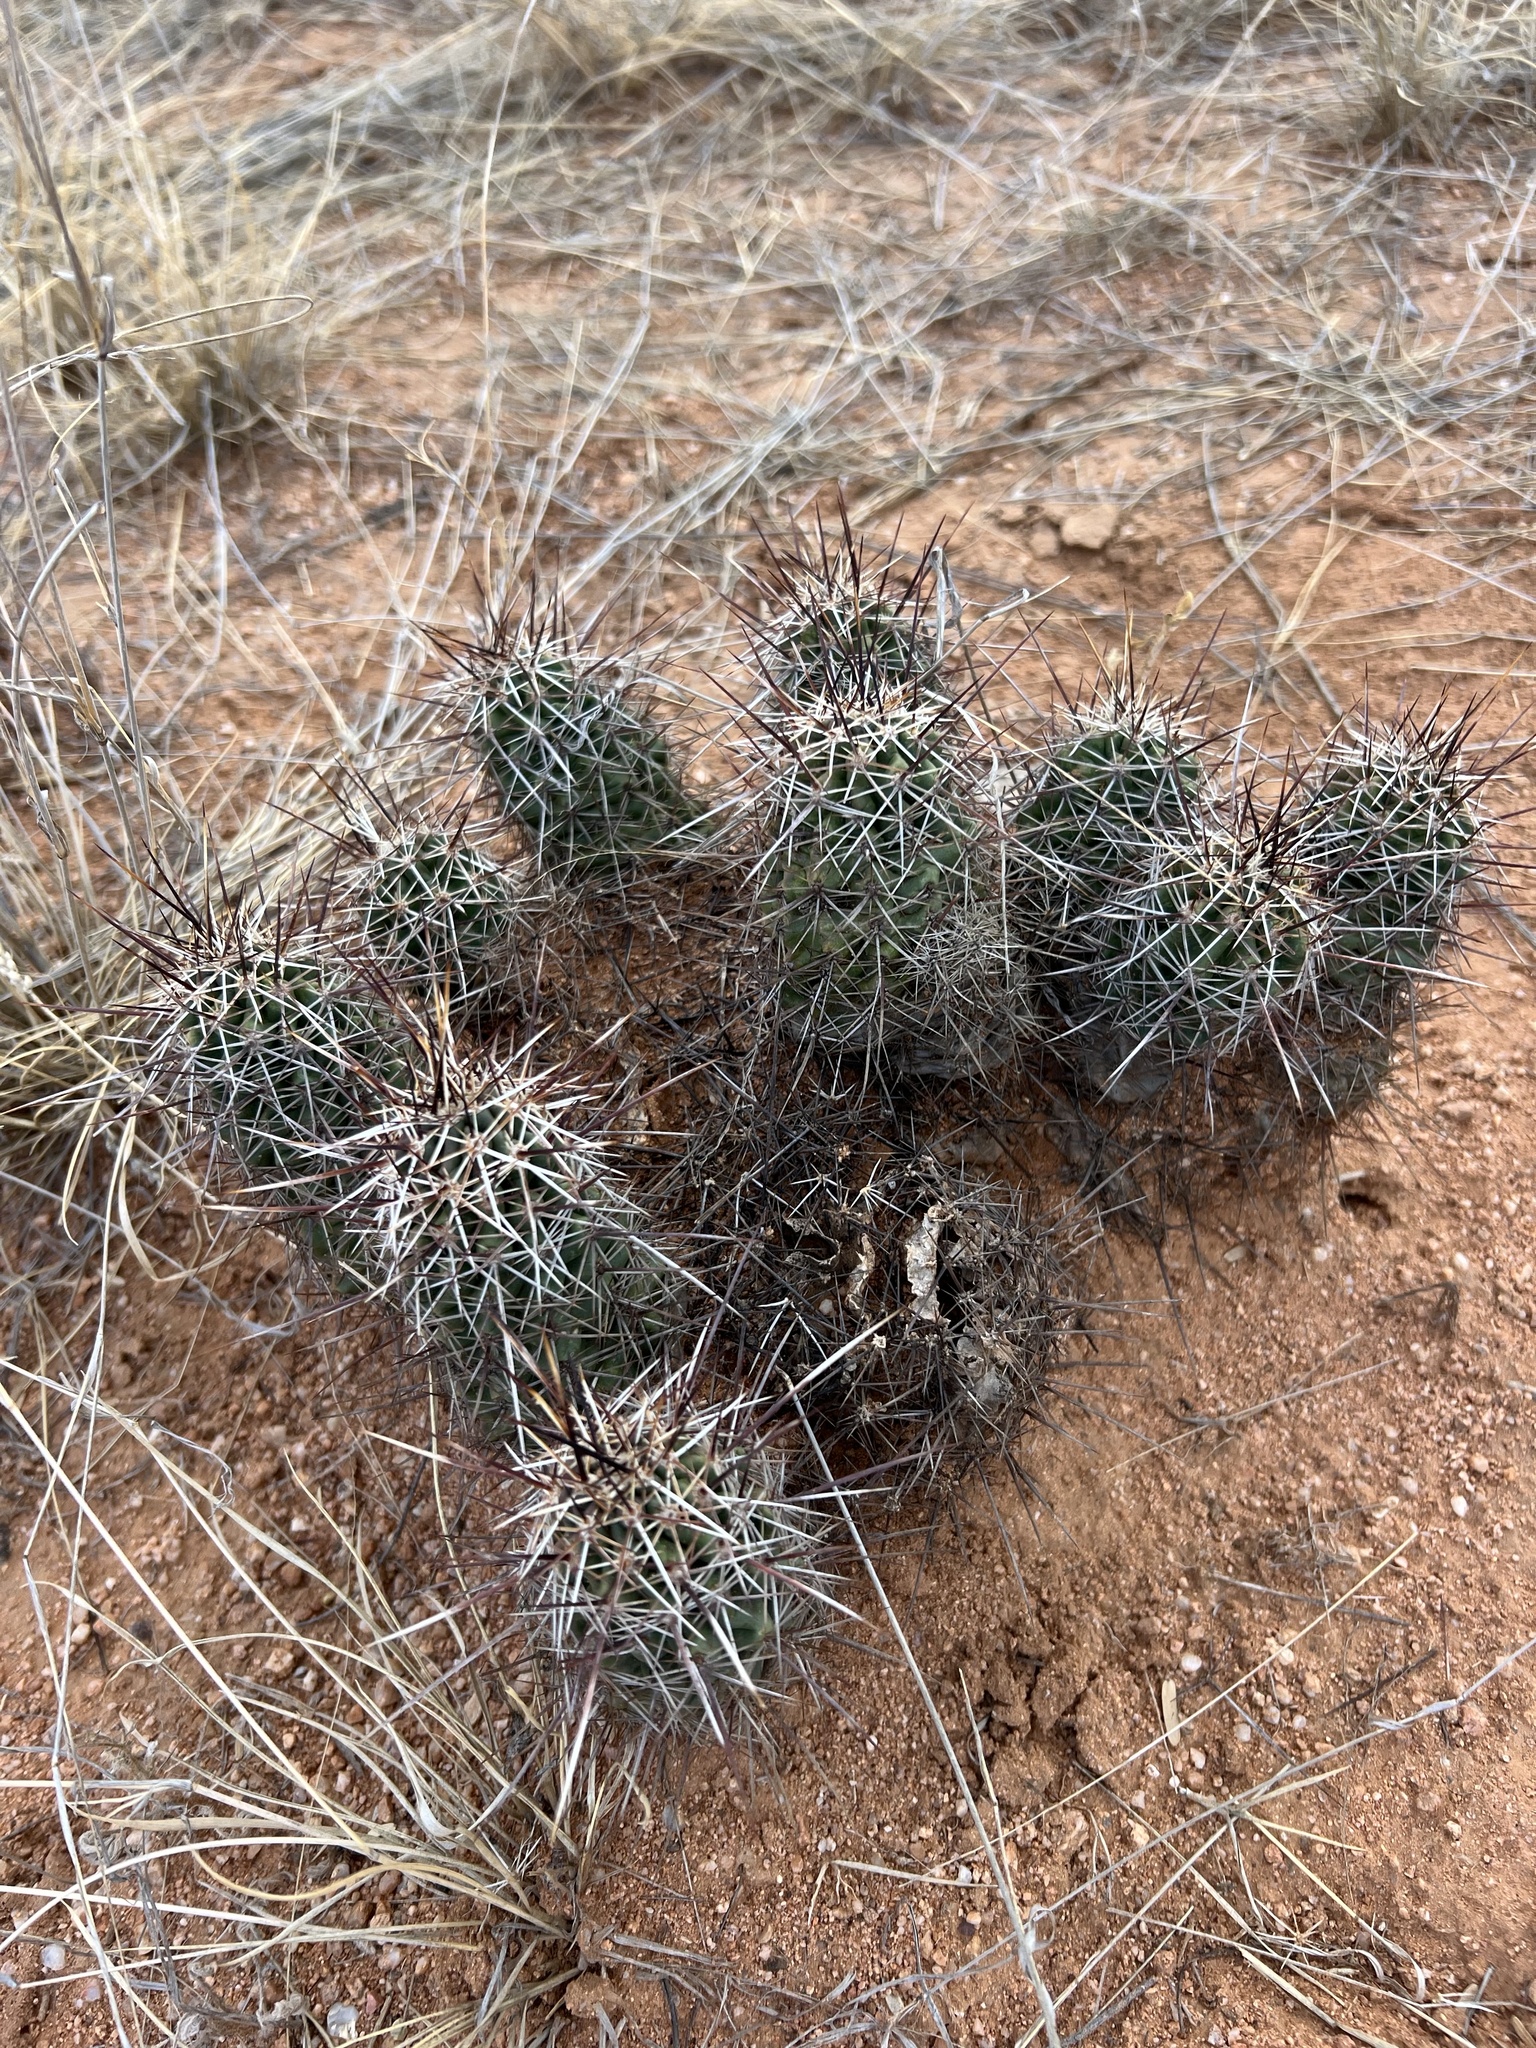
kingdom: Plantae
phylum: Tracheophyta
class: Magnoliopsida
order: Caryophyllales
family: Cactaceae
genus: Echinocereus
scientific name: Echinocereus fasciculatus
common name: Bundle hedgehog
